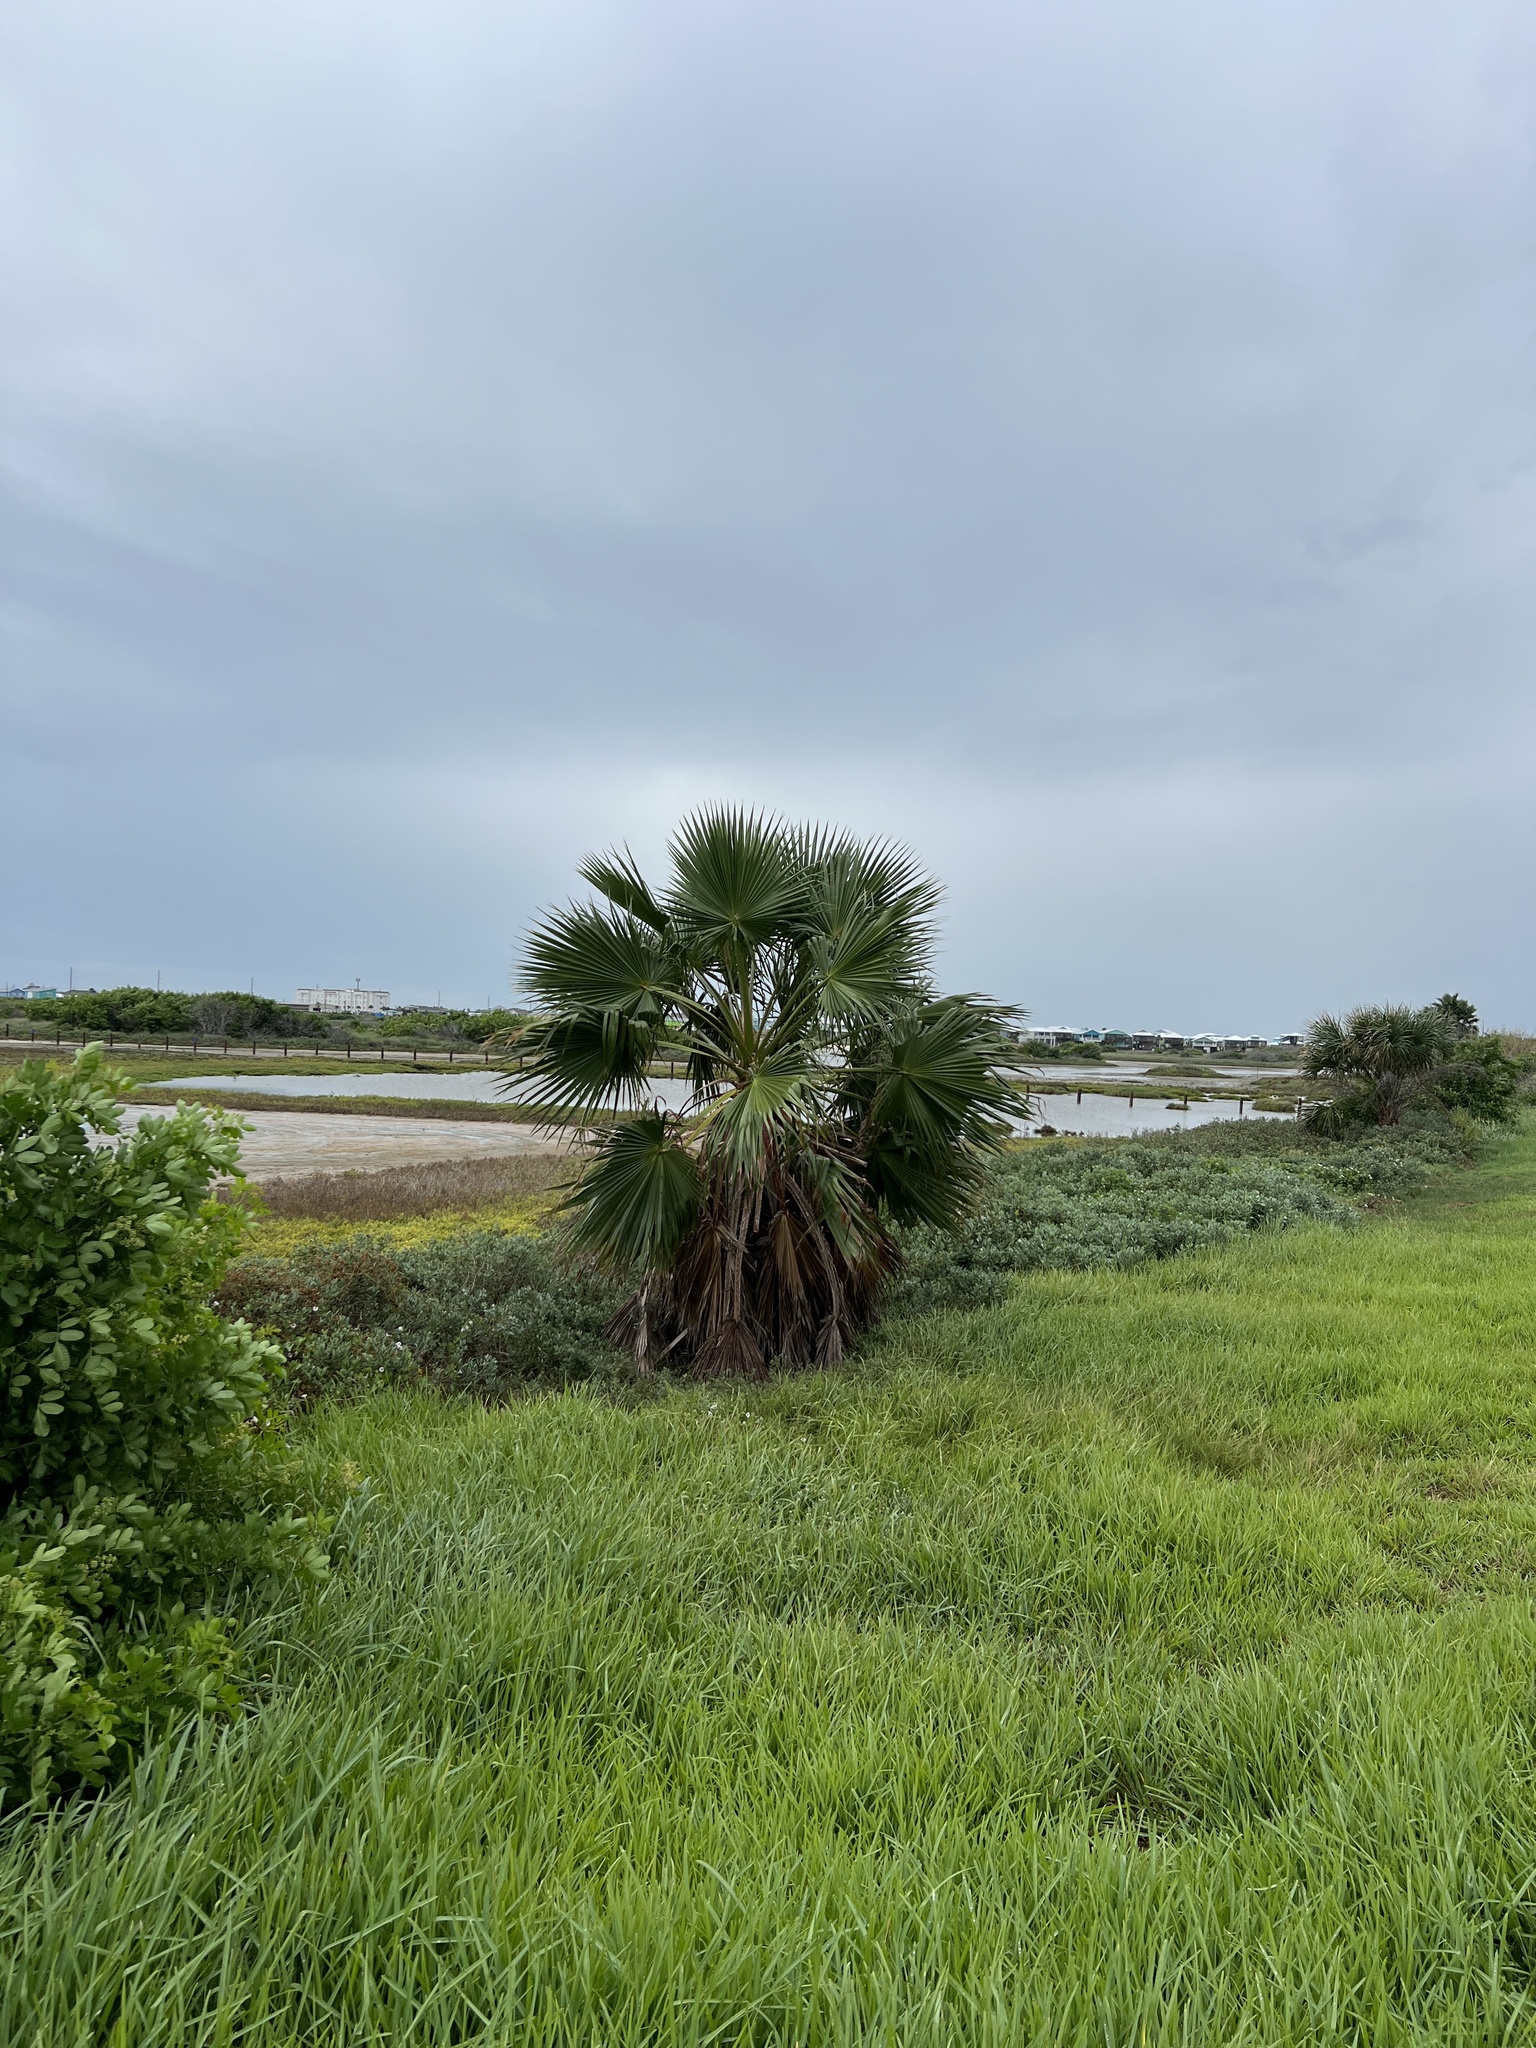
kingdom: Plantae
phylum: Tracheophyta
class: Liliopsida
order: Arecales
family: Arecaceae
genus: Washingtonia
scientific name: Washingtonia robusta
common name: Mexican fan palm
